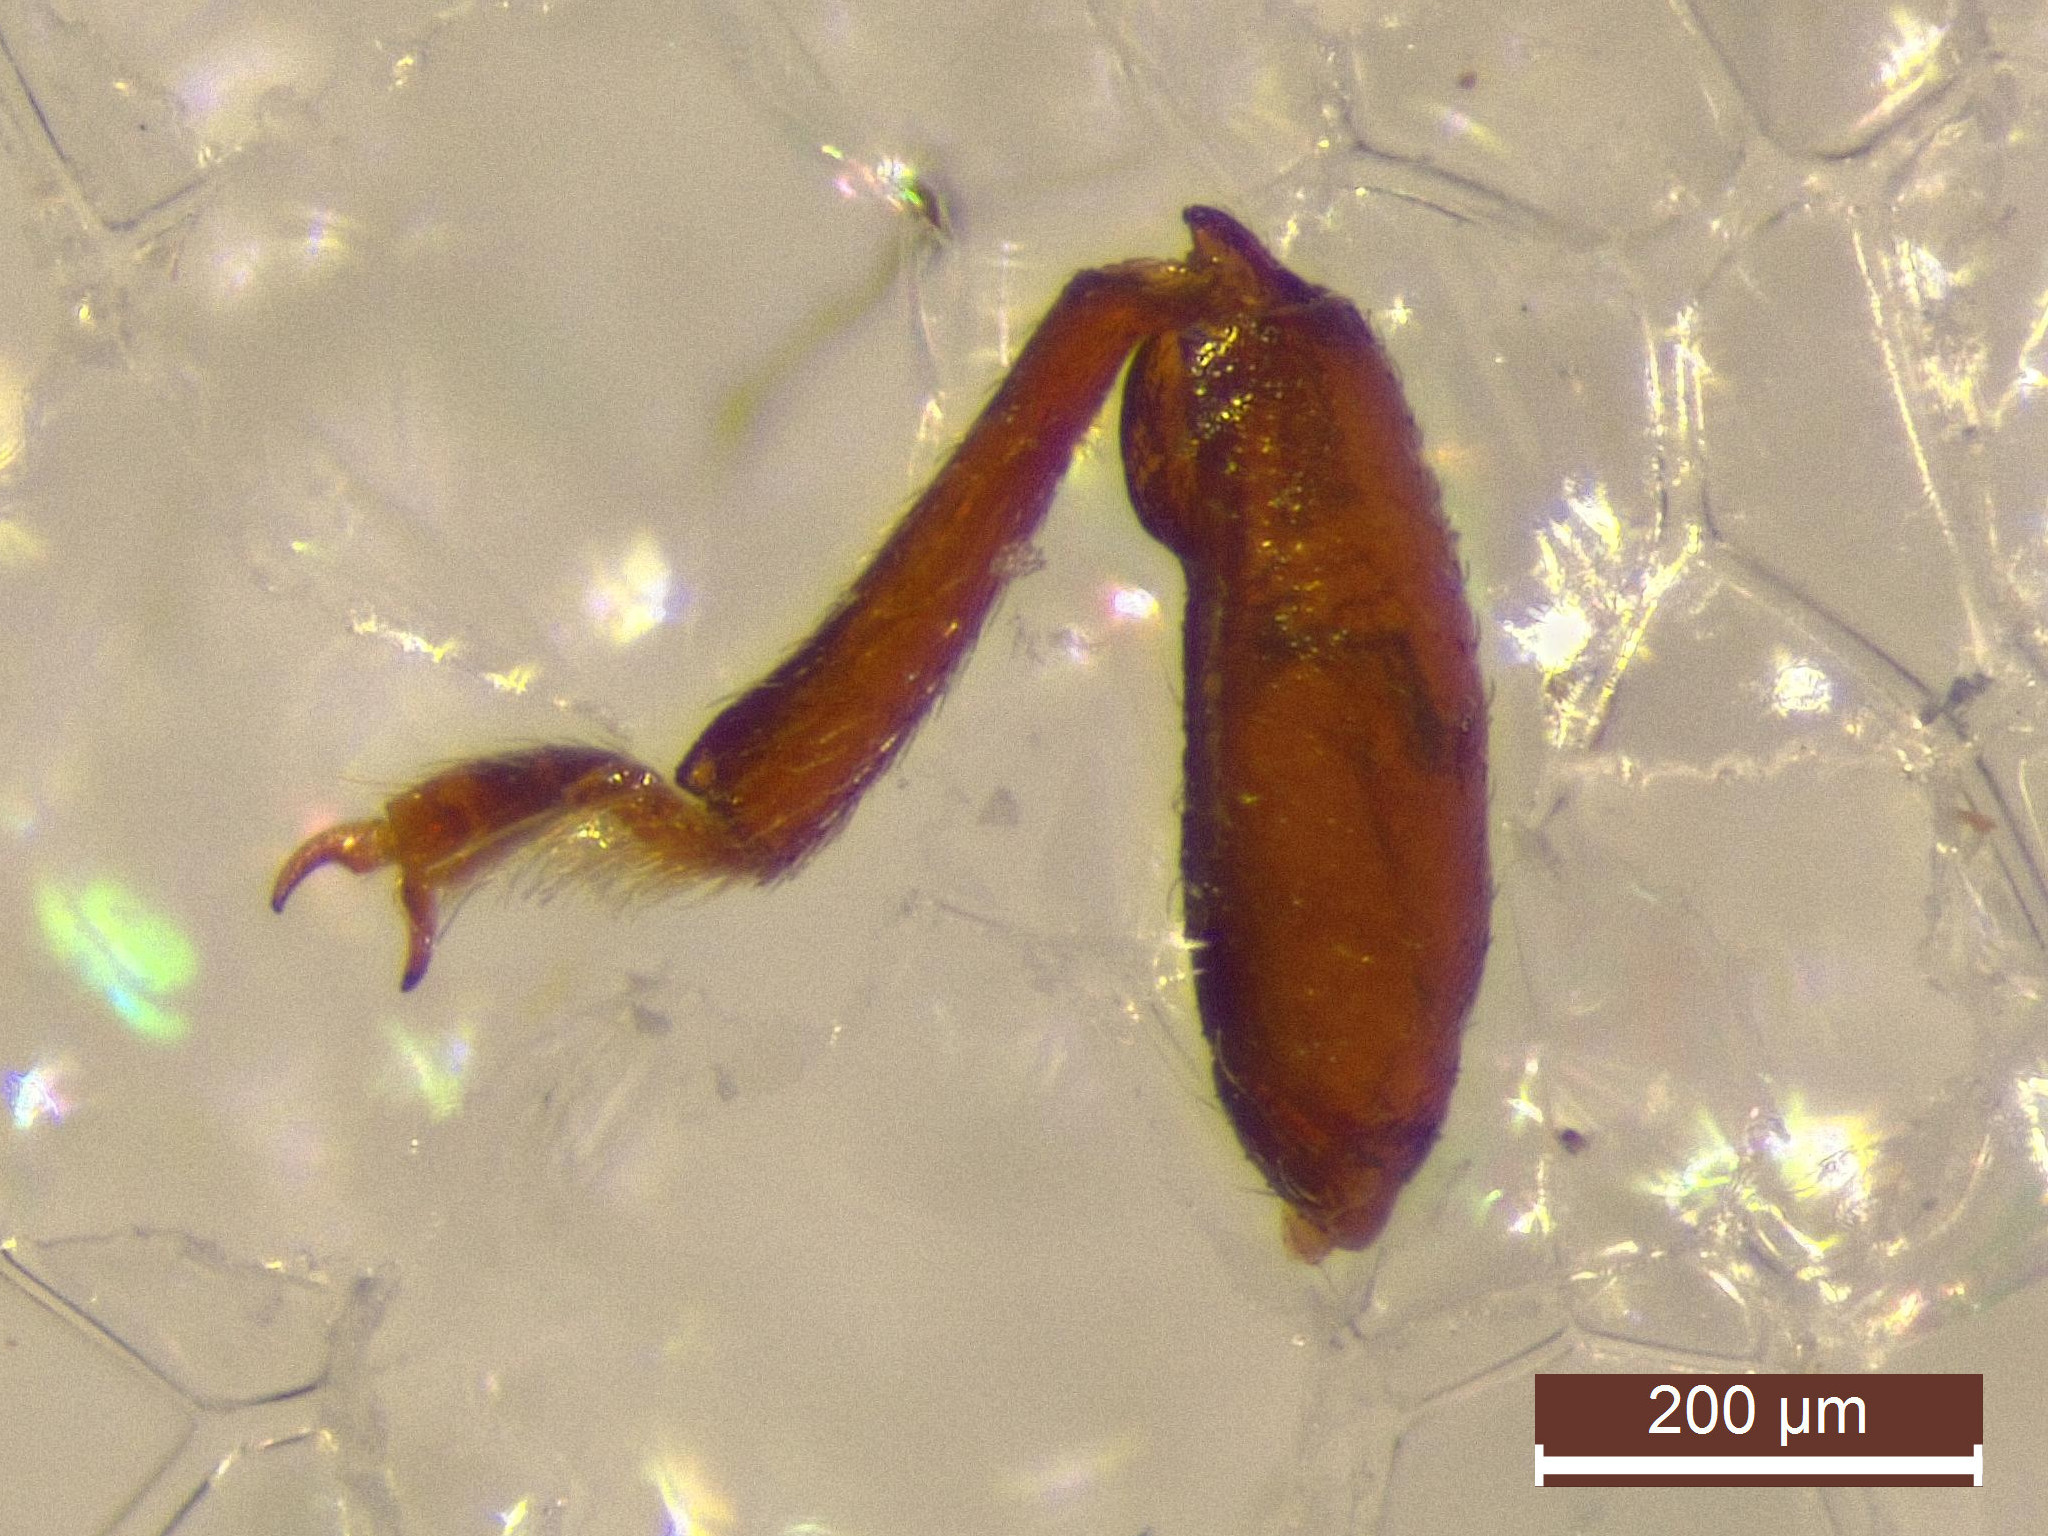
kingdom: Animalia
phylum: Arthropoda
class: Insecta
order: Coleoptera
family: Ciidae
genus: Cis
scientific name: Cis bidentatus
